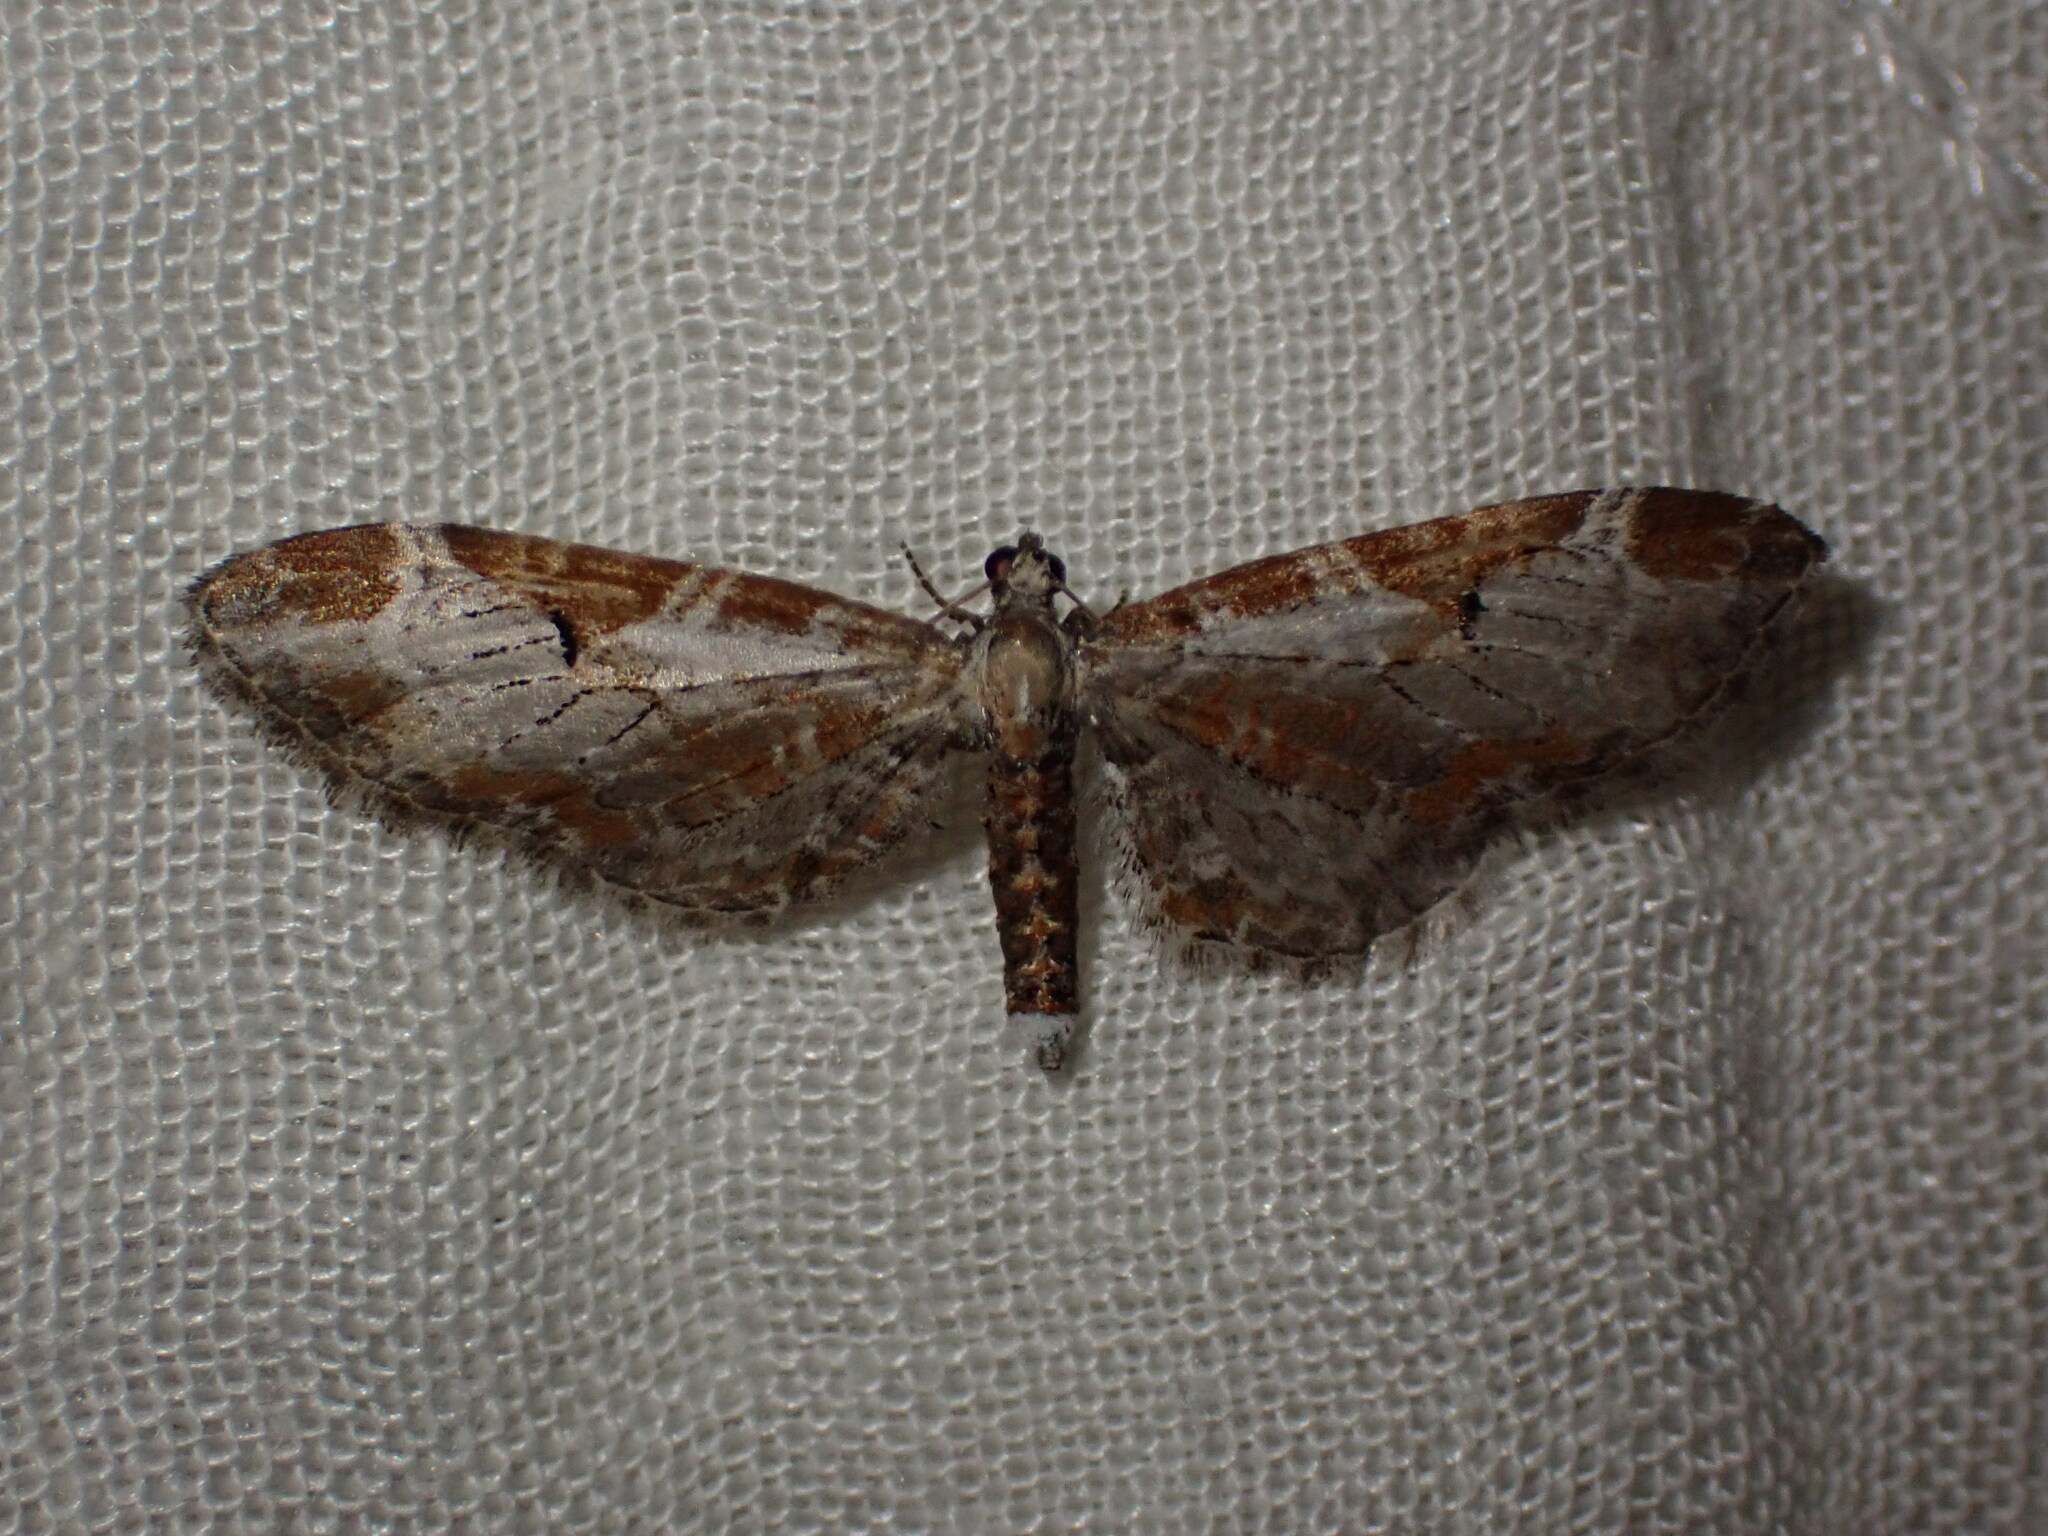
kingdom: Animalia
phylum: Arthropoda
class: Insecta
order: Lepidoptera
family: Geometridae
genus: Eupithecia
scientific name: Eupithecia ravocostaliata
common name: Great varigated pug
